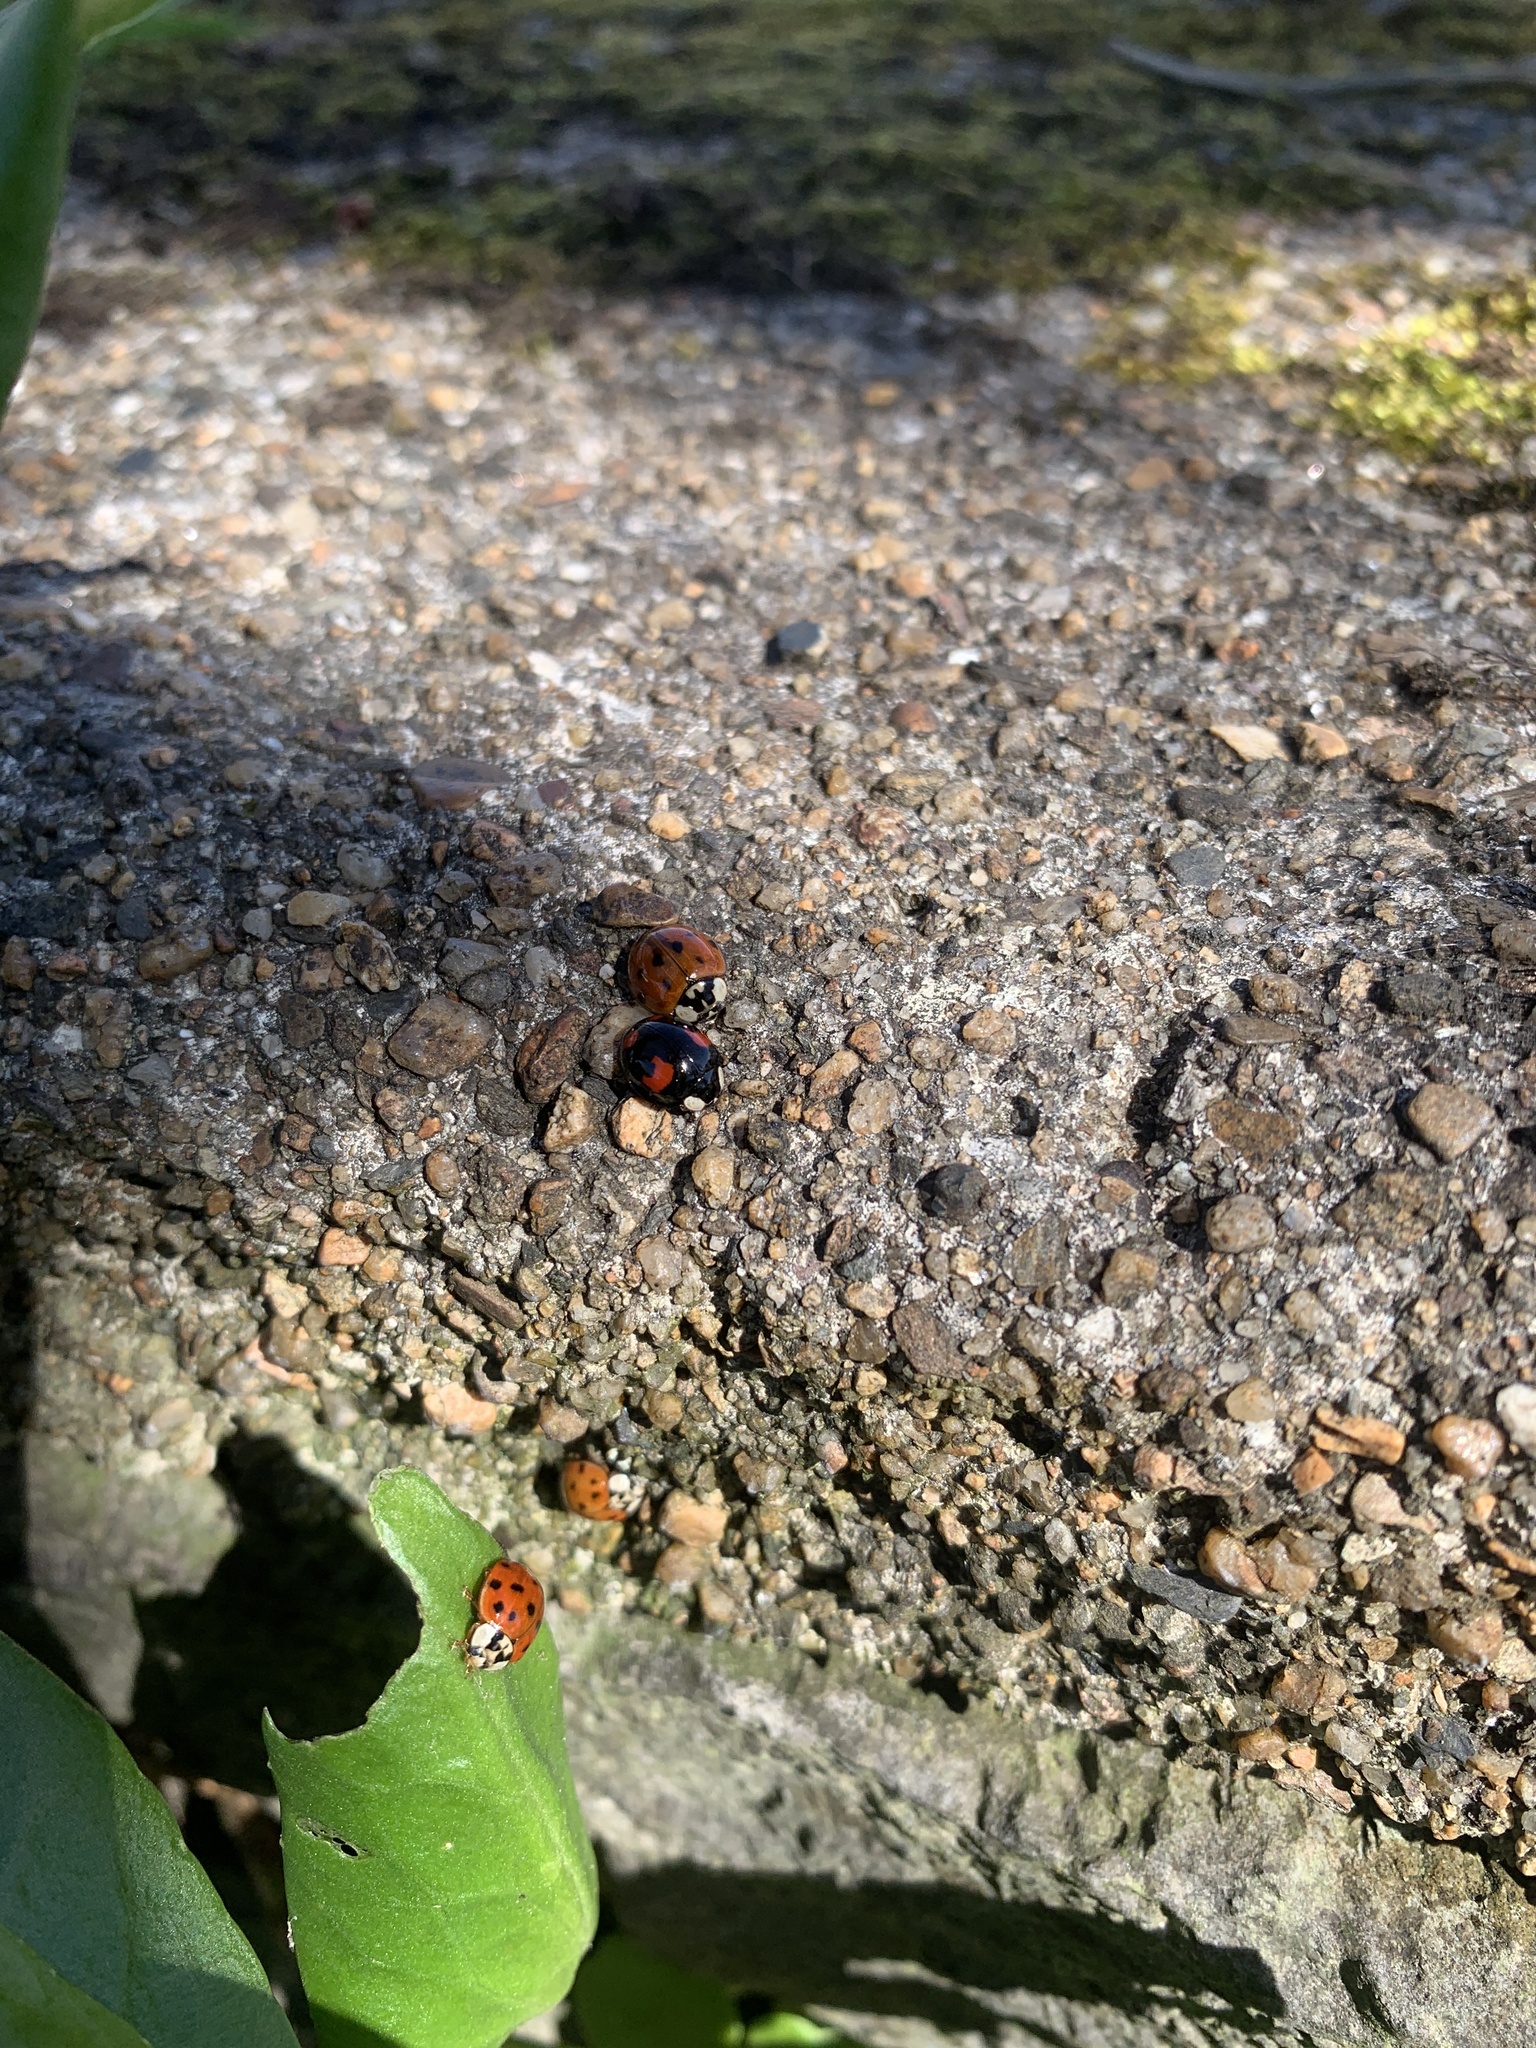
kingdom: Animalia
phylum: Arthropoda
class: Insecta
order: Coleoptera
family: Coccinellidae
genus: Harmonia
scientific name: Harmonia axyridis
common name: Harlequin ladybird
